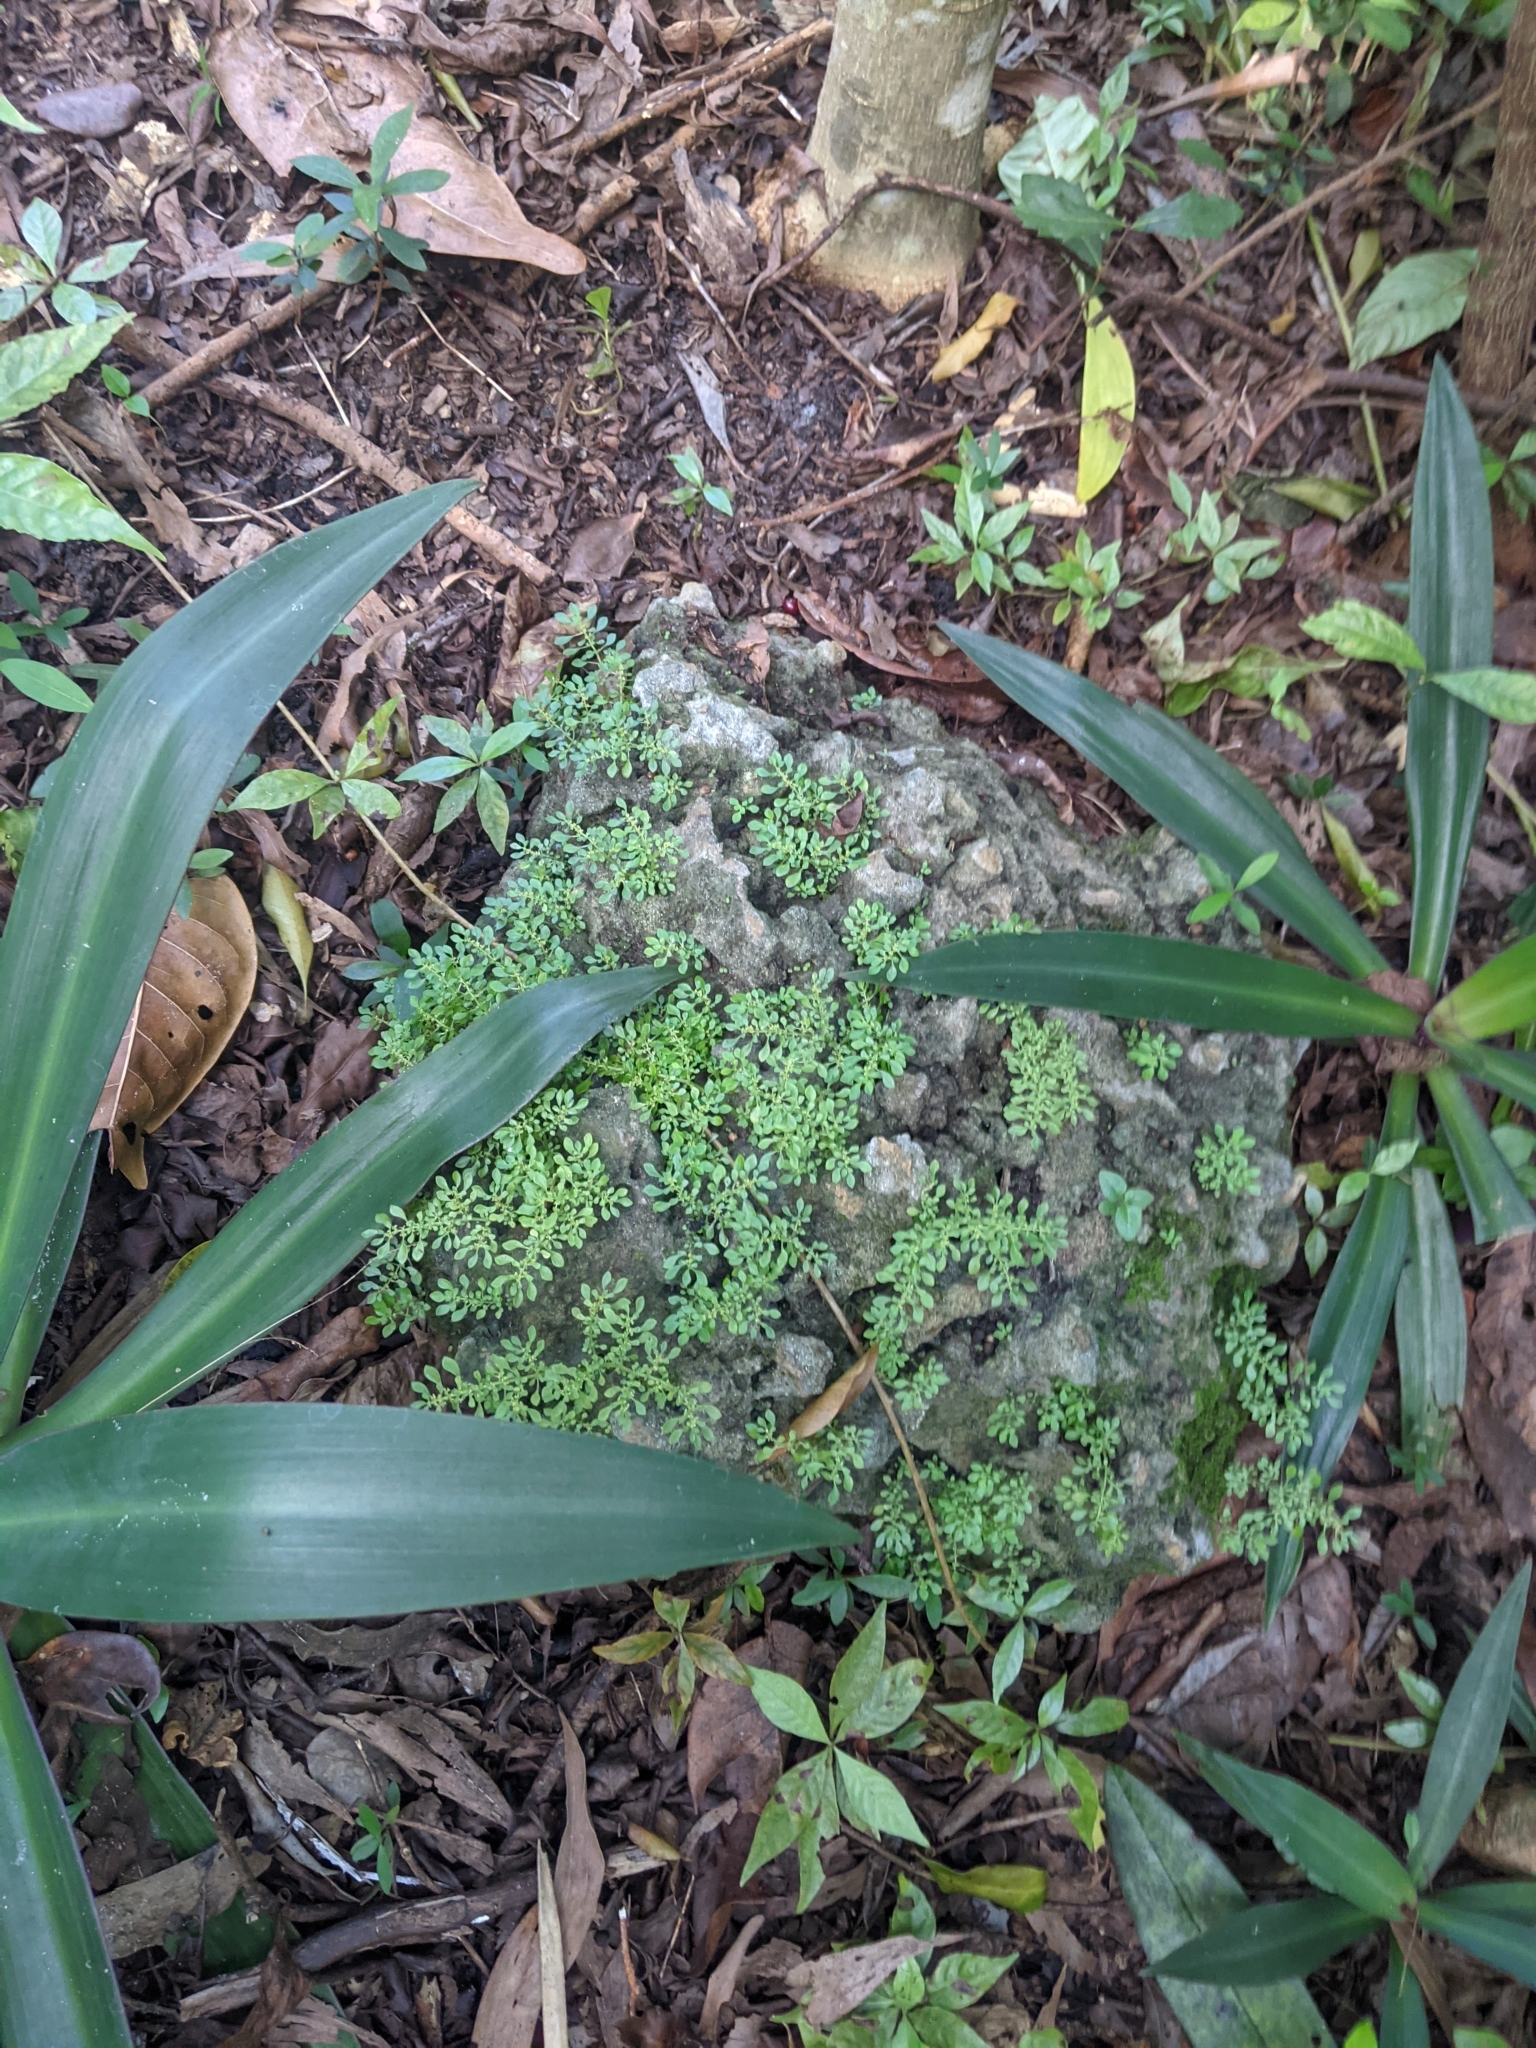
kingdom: Plantae
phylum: Tracheophyta
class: Magnoliopsida
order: Rosales
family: Urticaceae
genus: Pilea
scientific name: Pilea microphylla
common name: Artillery-plant
